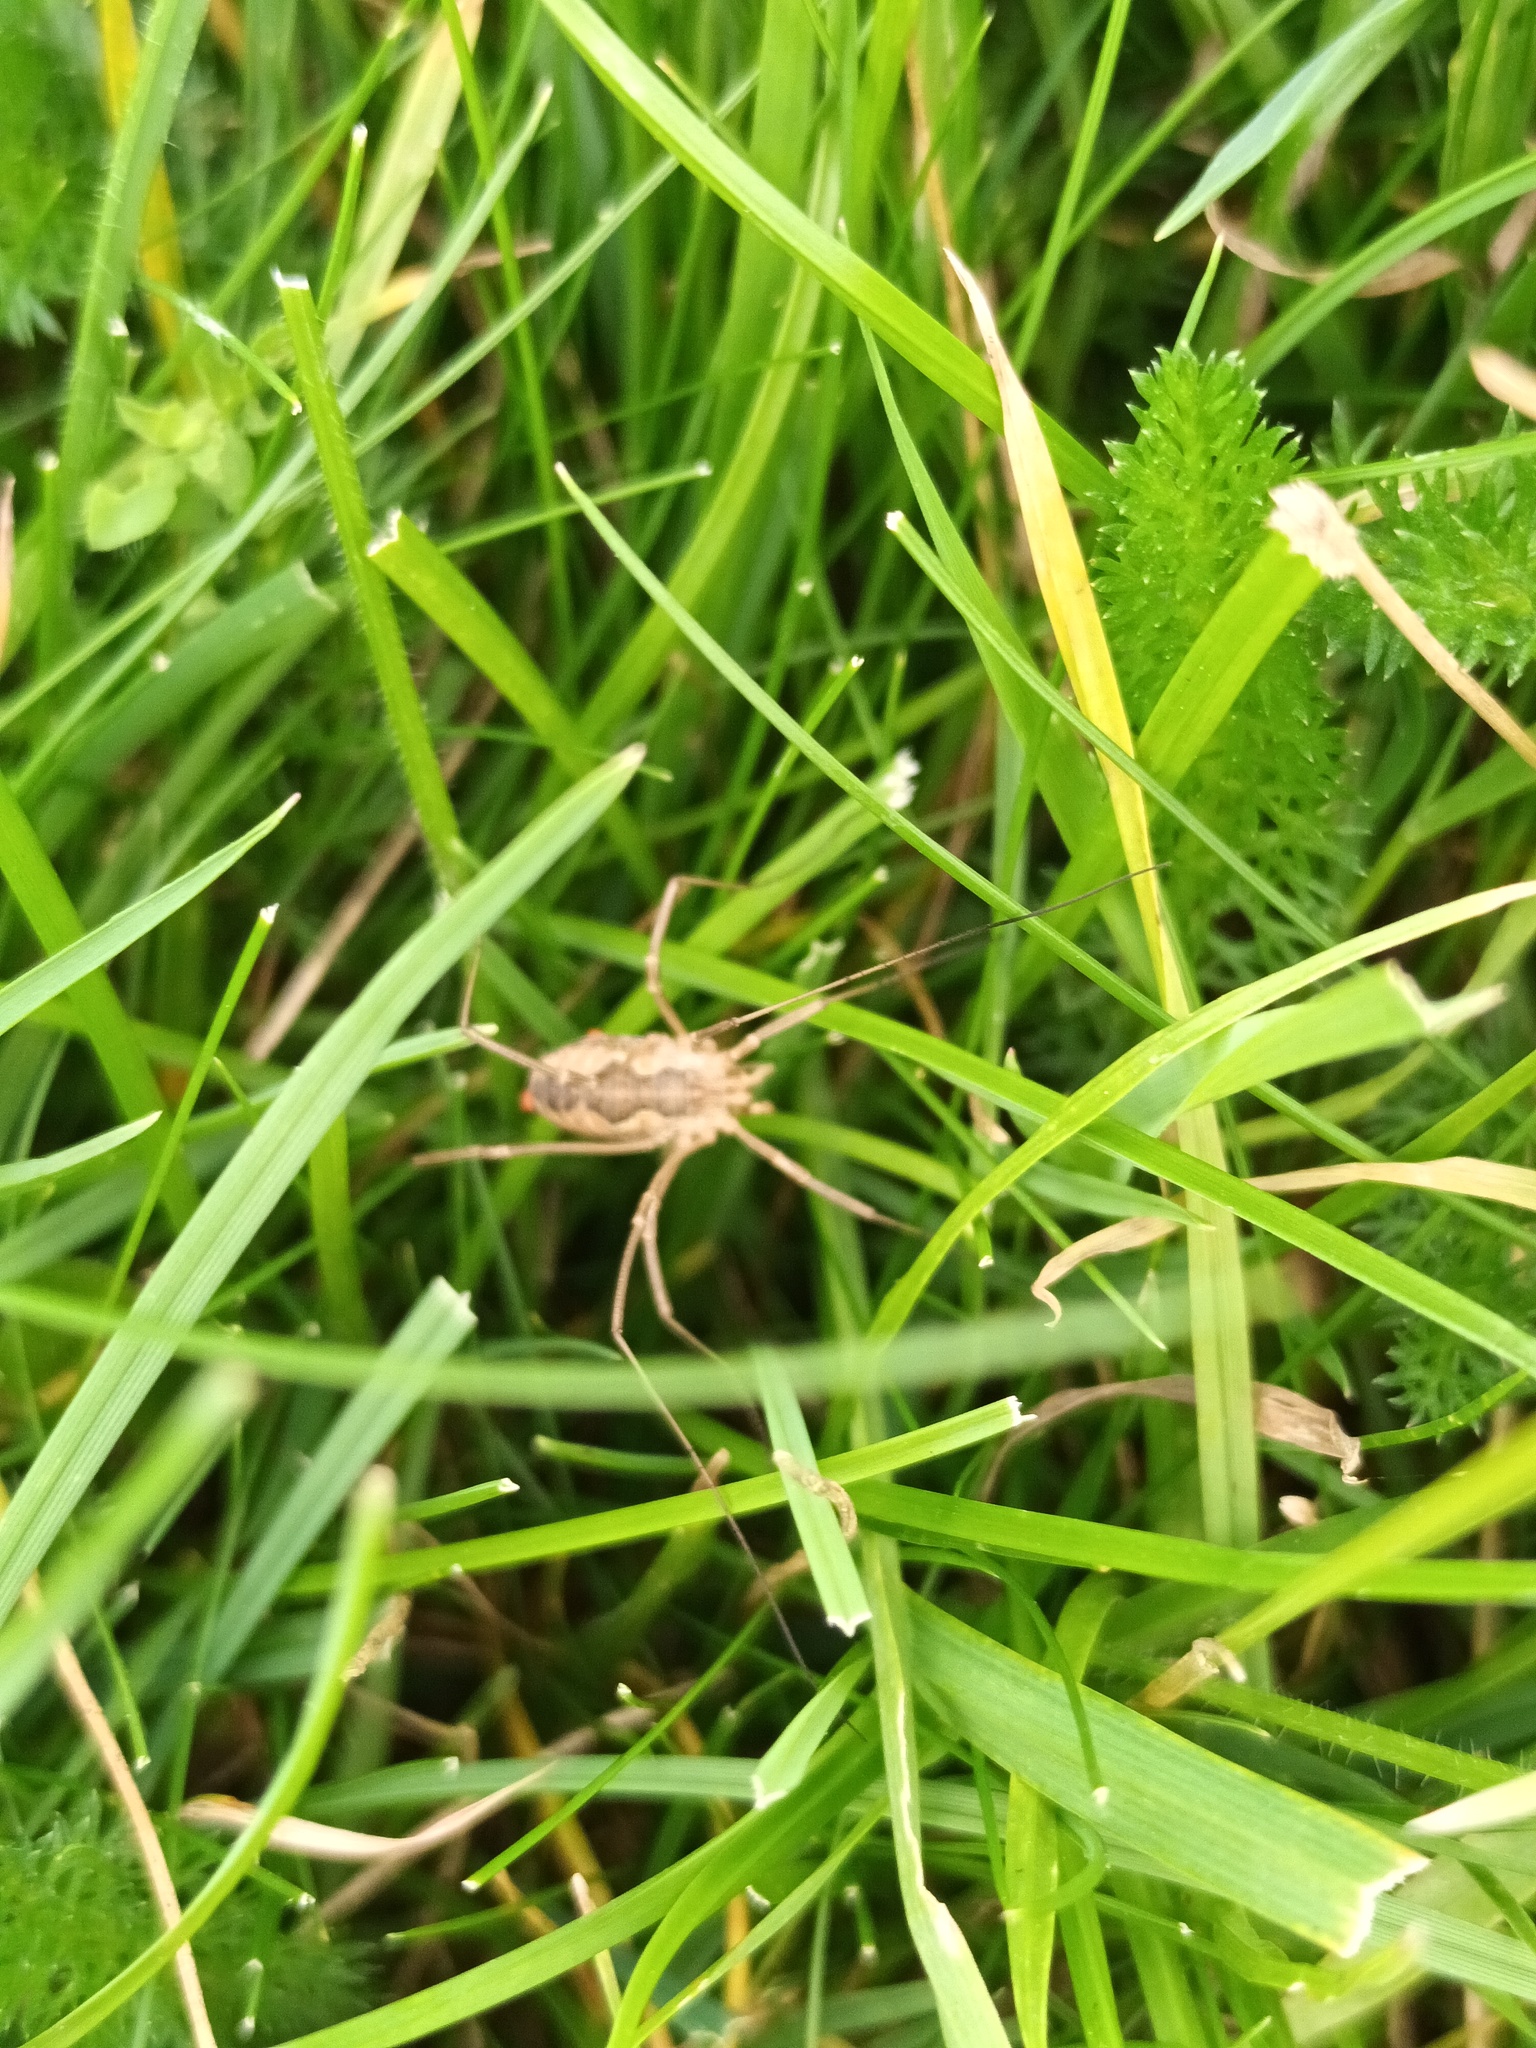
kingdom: Animalia
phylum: Arthropoda
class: Arachnida
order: Opiliones
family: Phalangiidae
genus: Phalangium
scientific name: Phalangium opilio
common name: Daddy longleg
